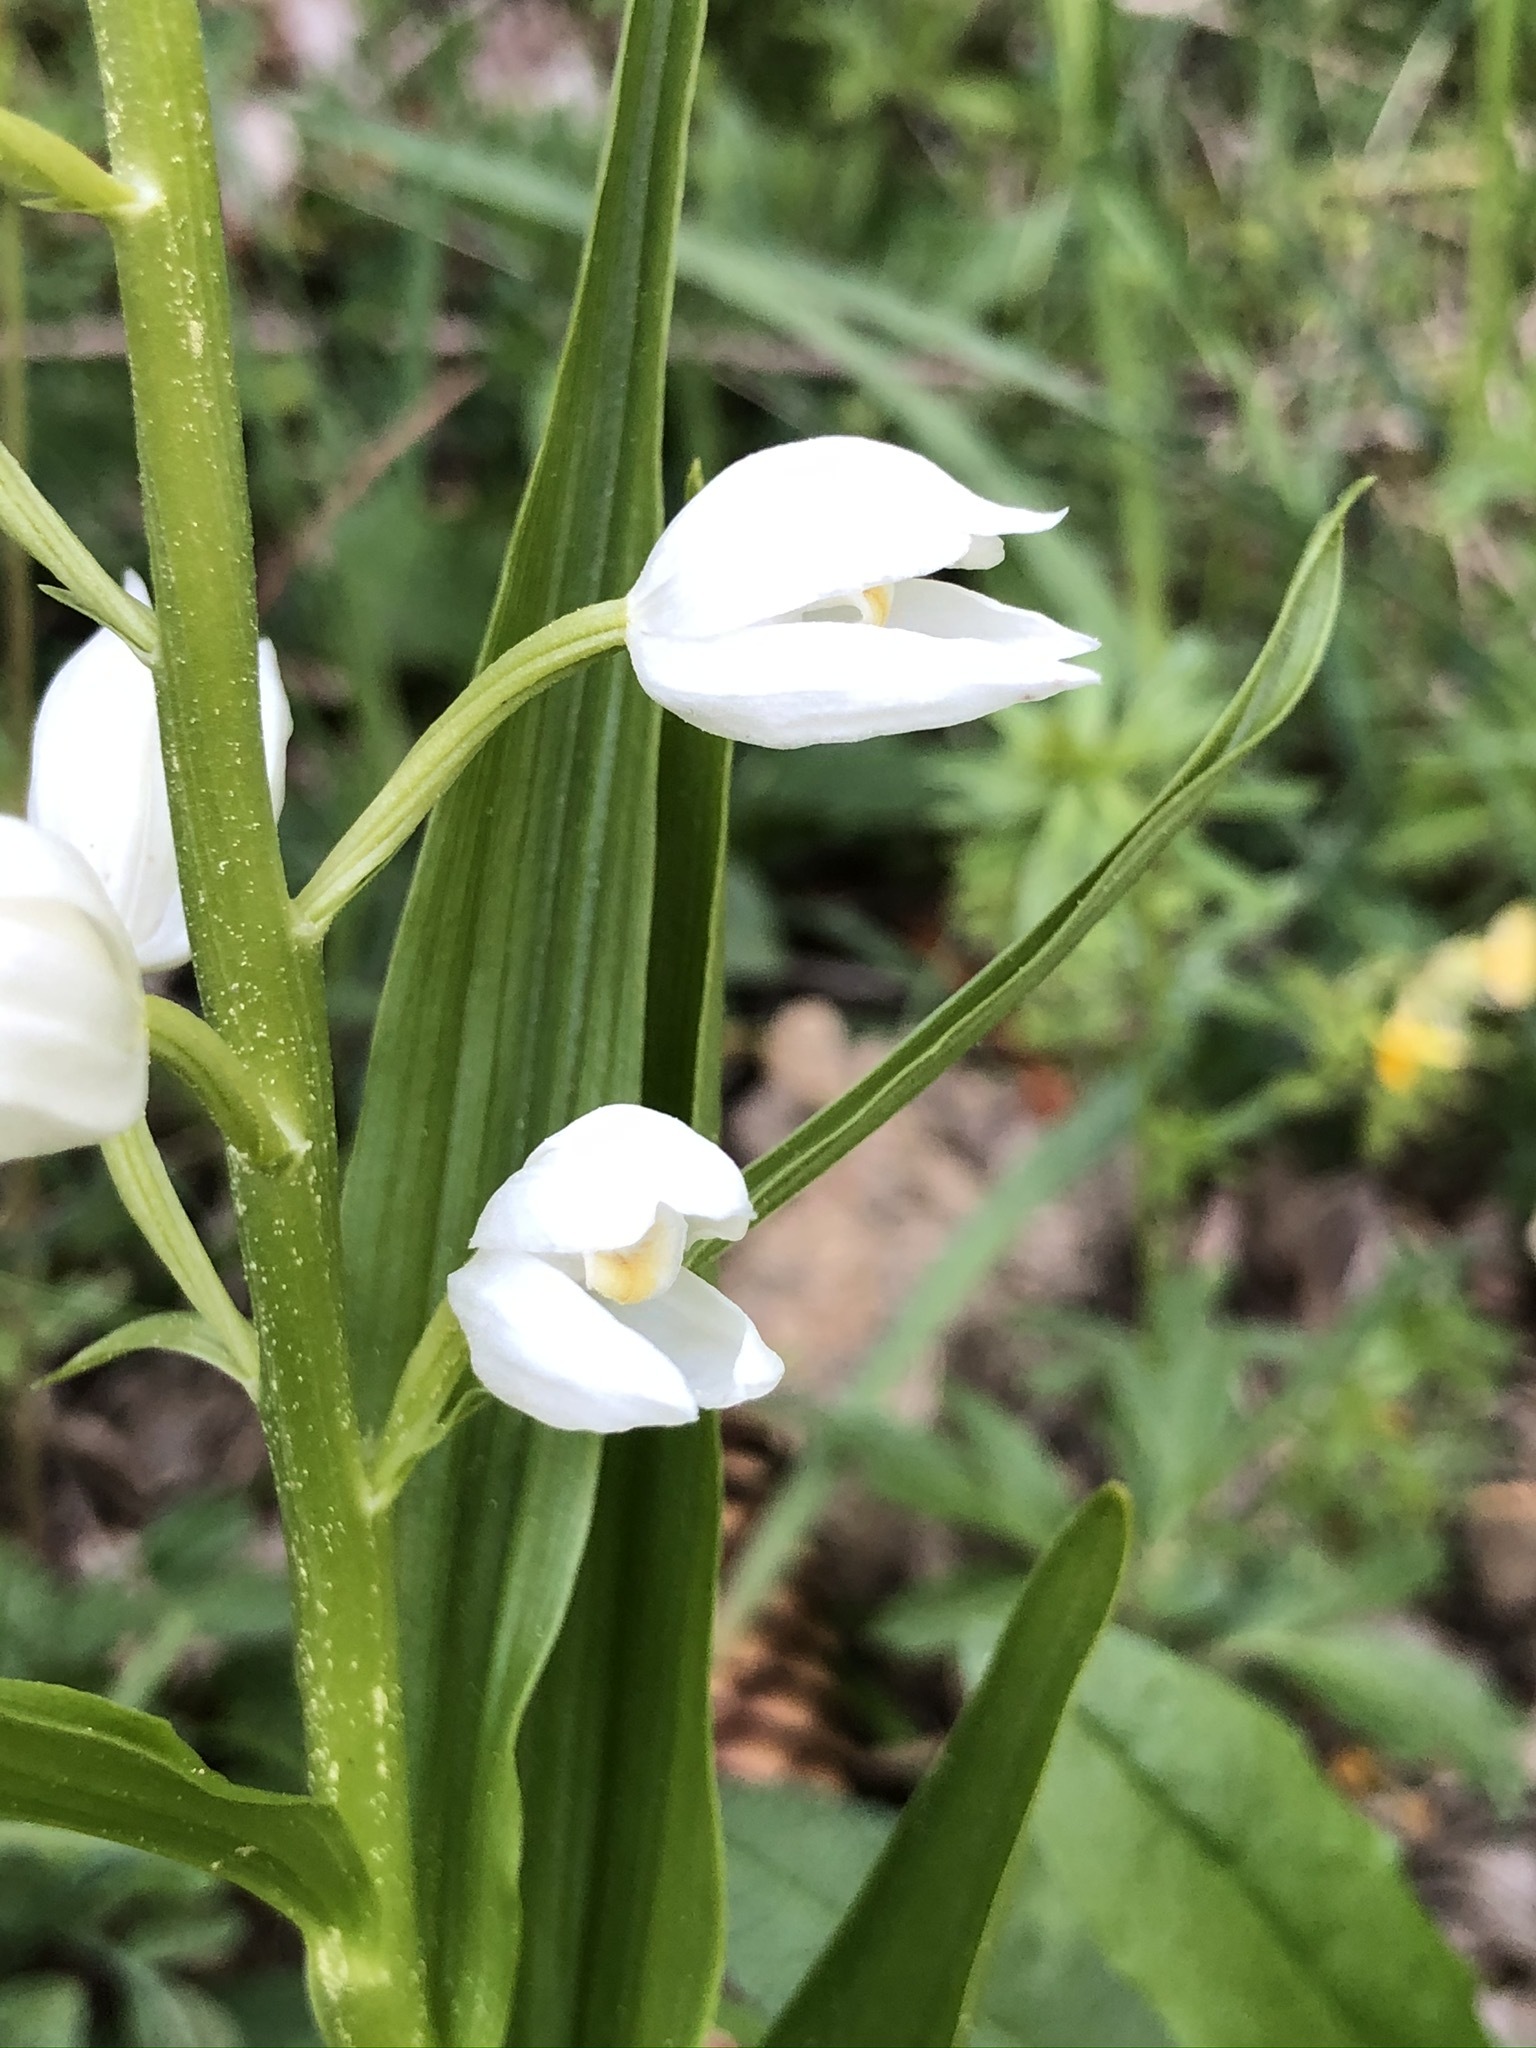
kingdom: Plantae
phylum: Tracheophyta
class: Liliopsida
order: Asparagales
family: Orchidaceae
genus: Cephalanthera
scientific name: Cephalanthera longifolia
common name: Narrow-leaved helleborine
